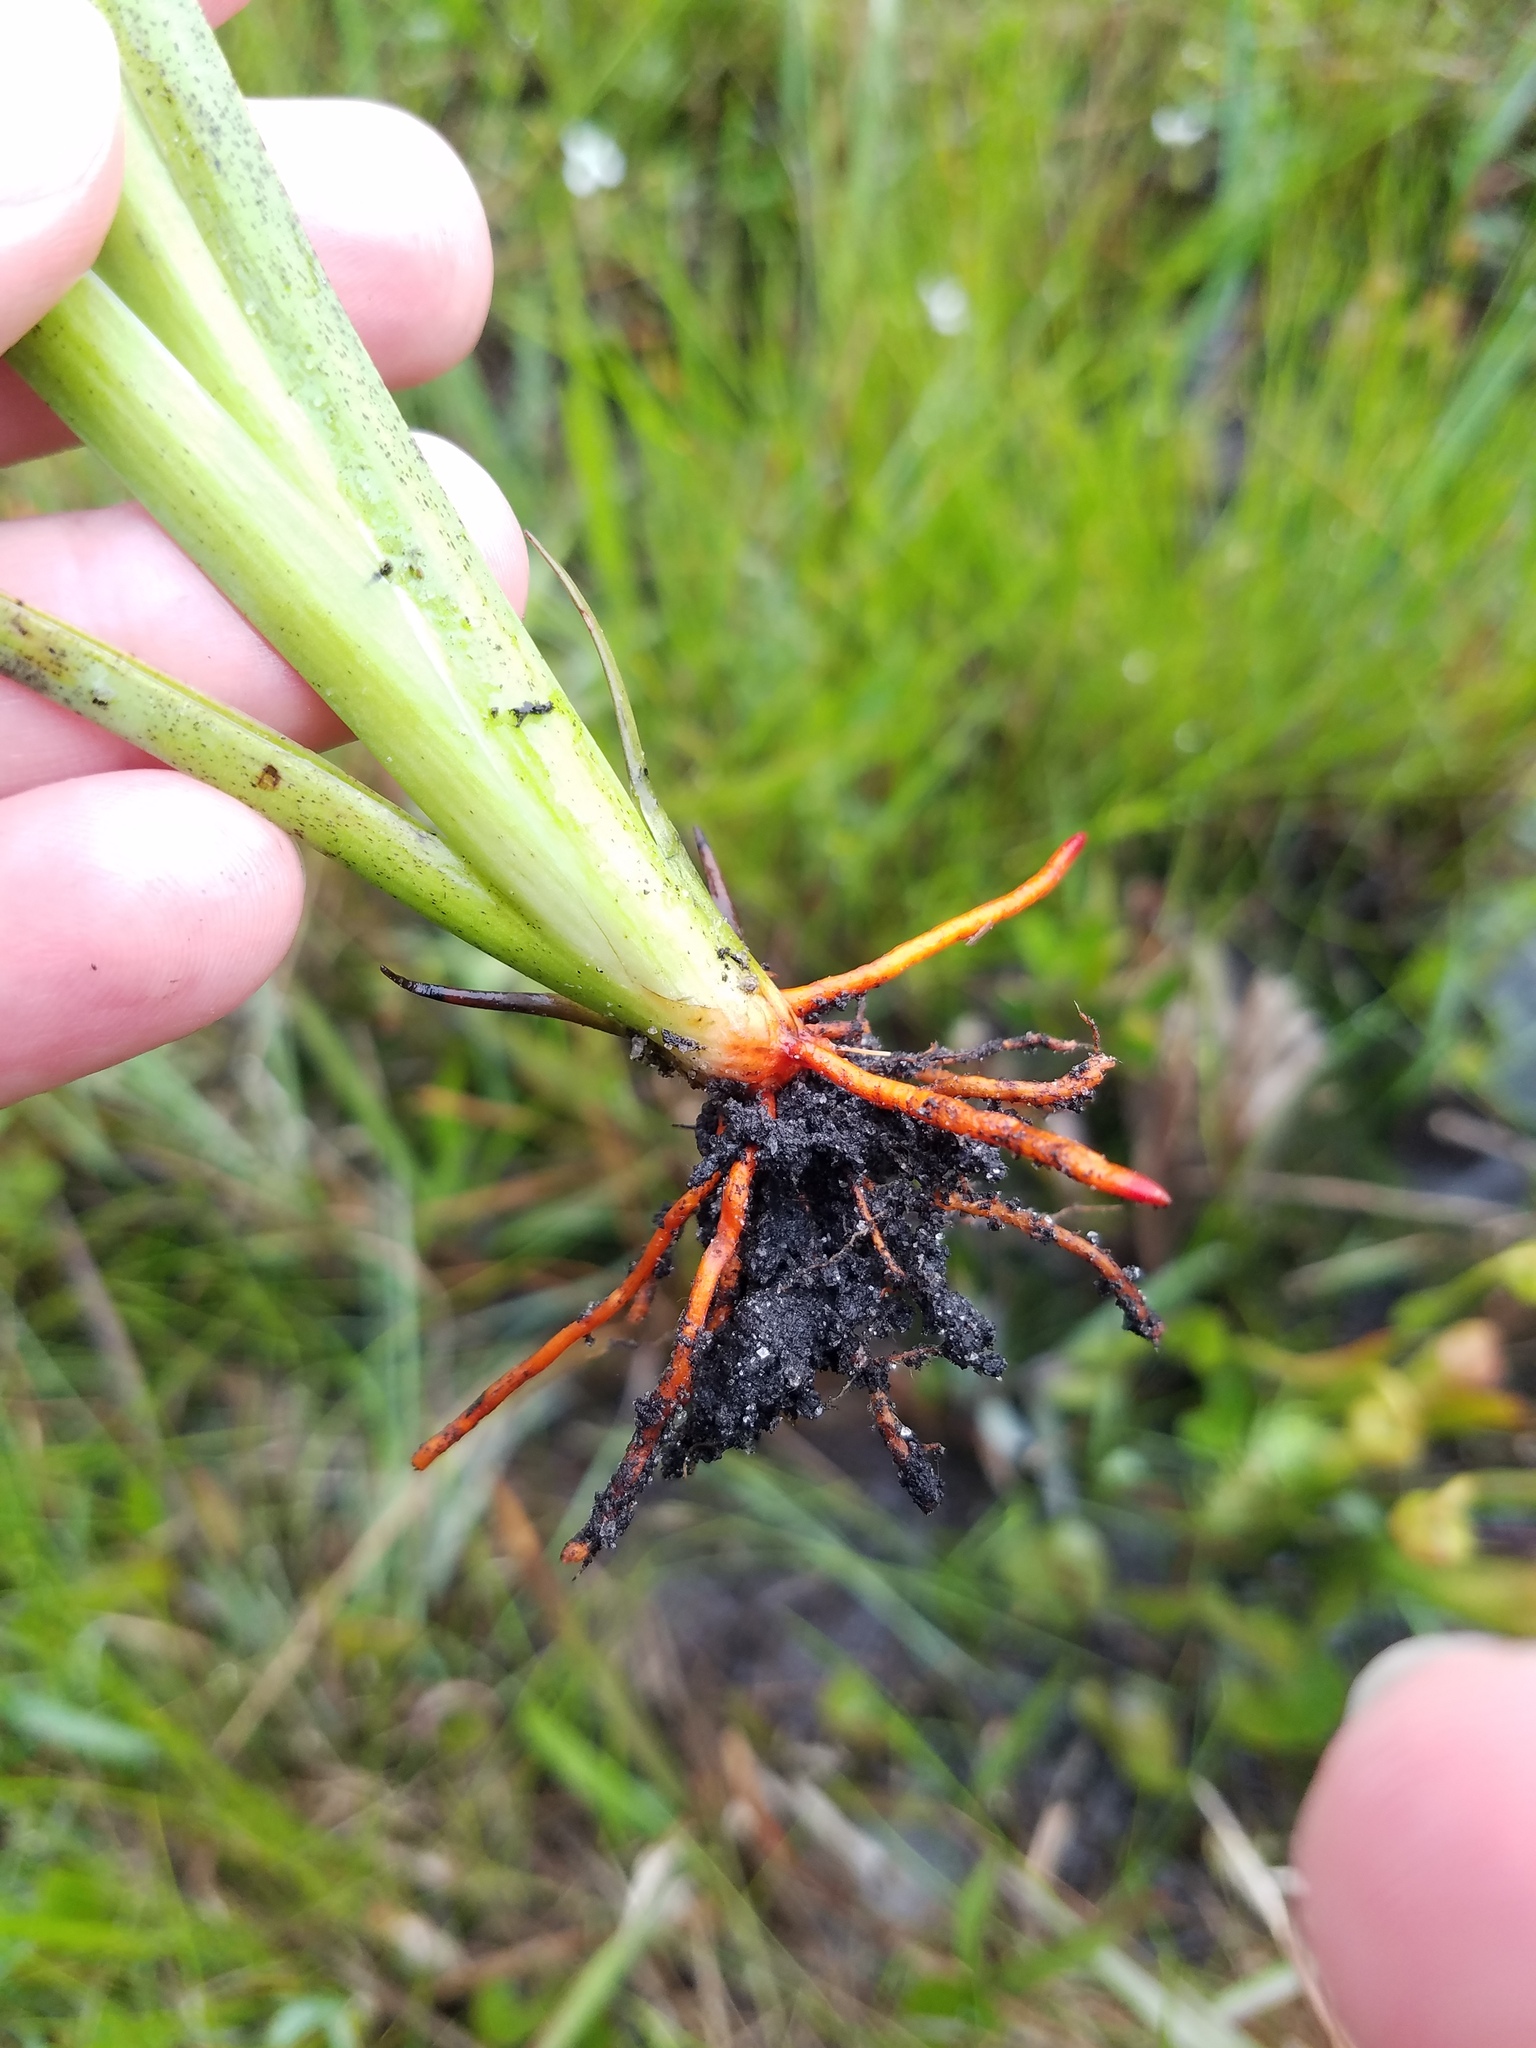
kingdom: Plantae
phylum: Tracheophyta
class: Liliopsida
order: Commelinales
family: Haemodoraceae
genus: Lachnanthes
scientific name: Lachnanthes caroliana
